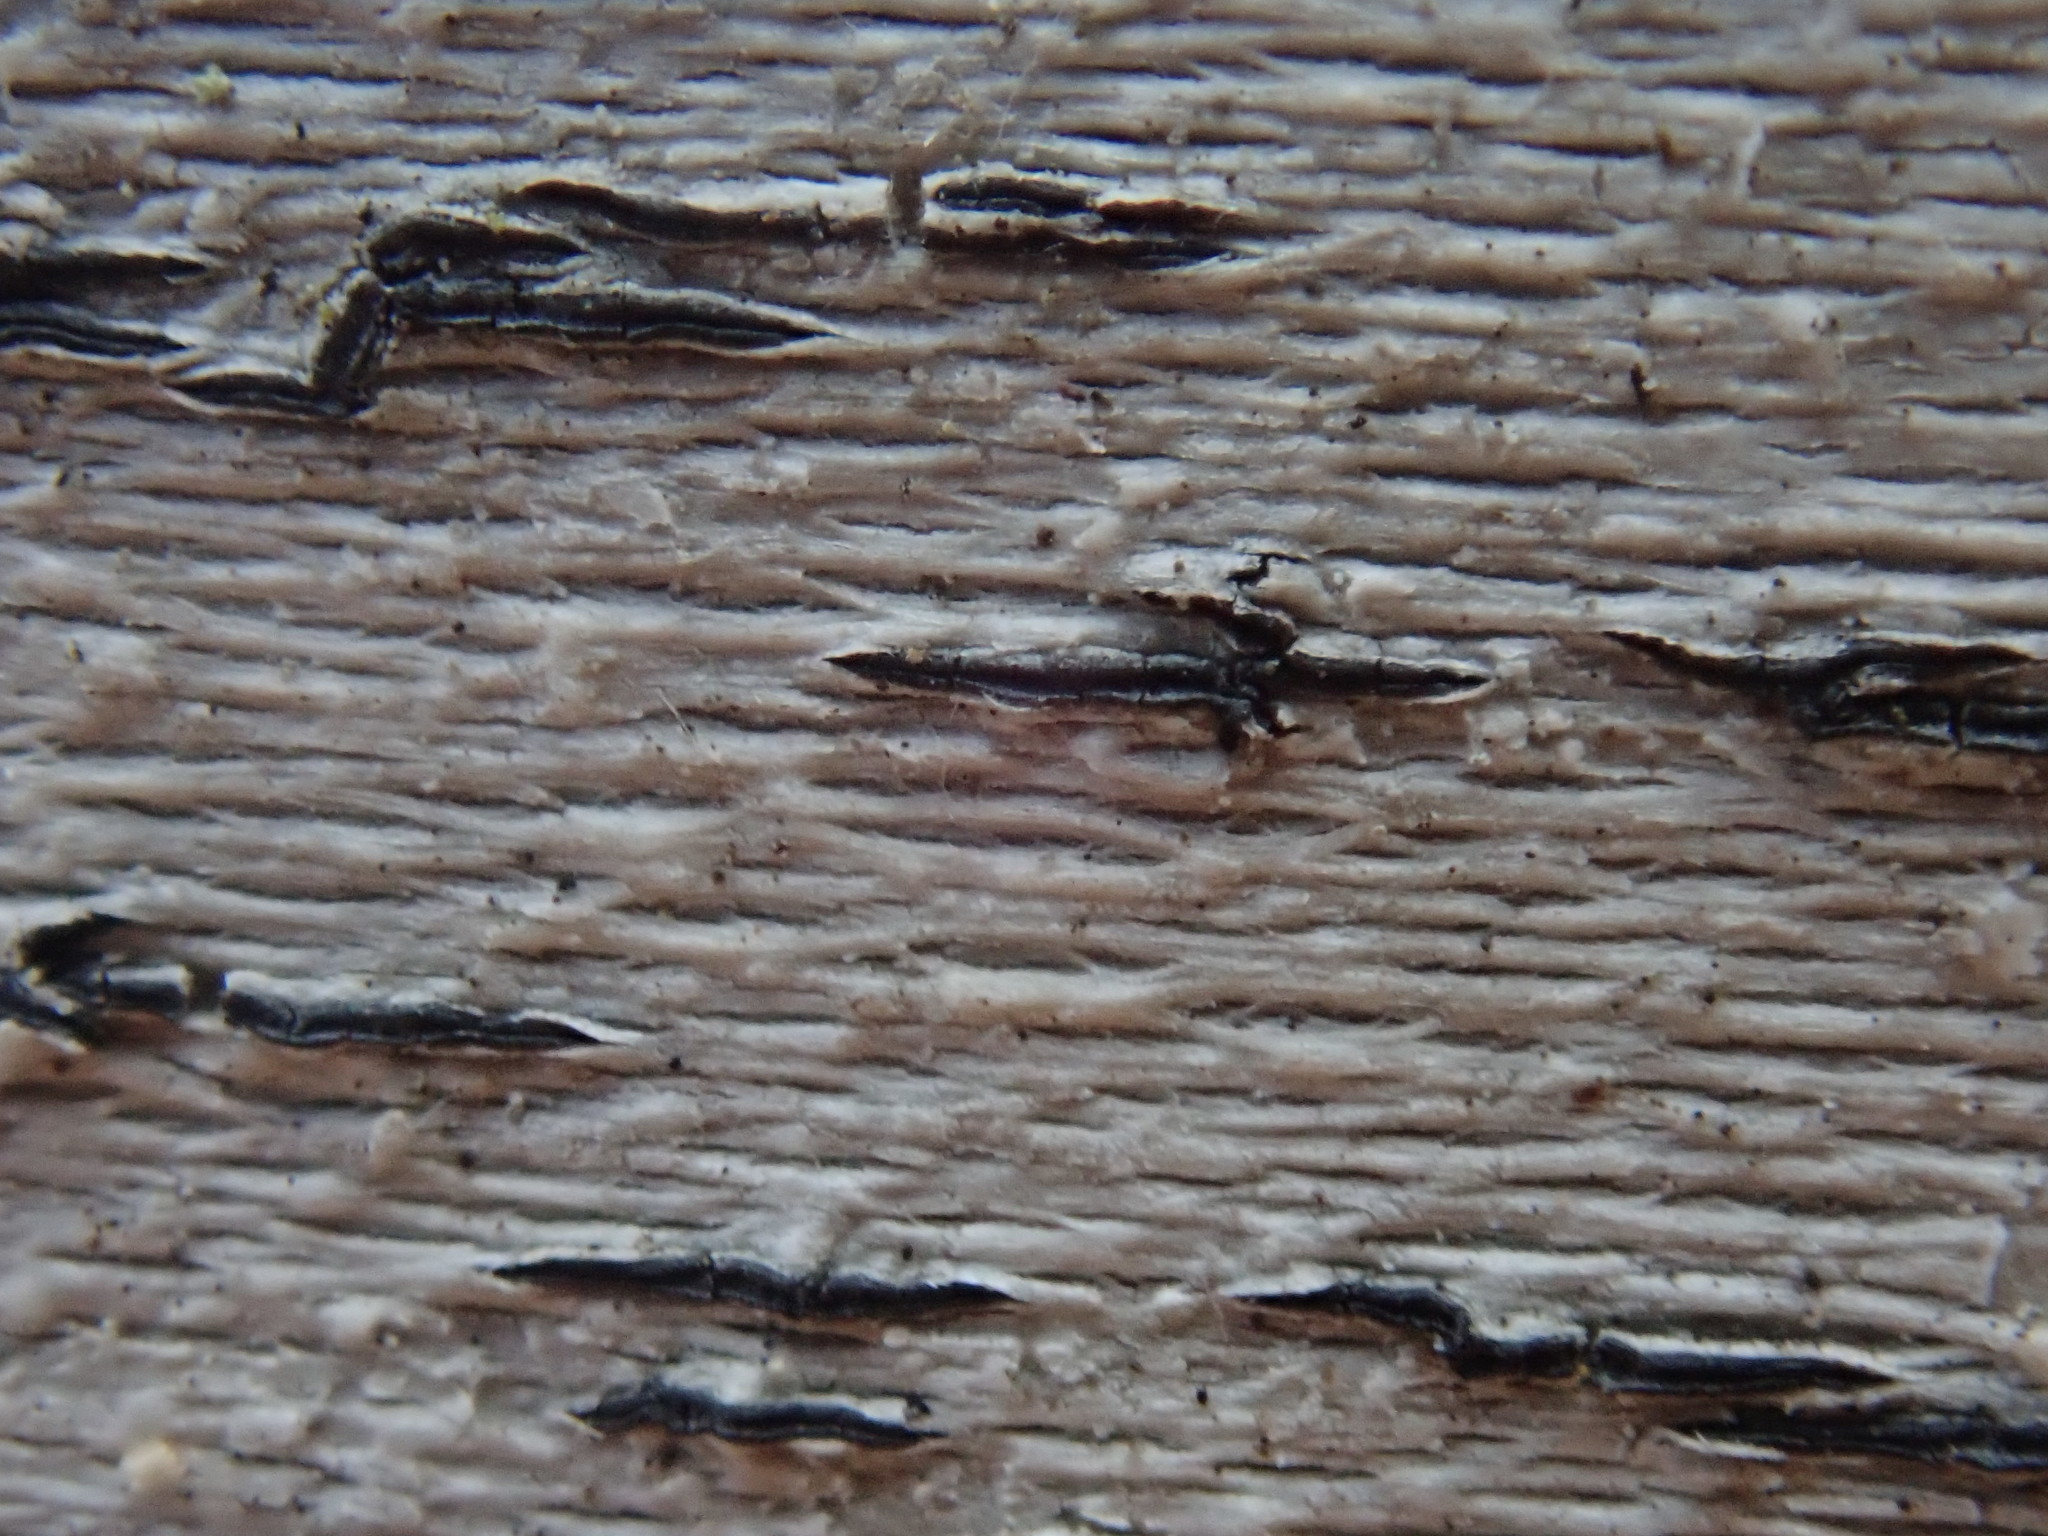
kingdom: Fungi
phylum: Ascomycota
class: Lecanoromycetes
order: Ostropales
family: Graphidaceae
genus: Graphis
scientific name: Graphis scripta
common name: Script lichen
